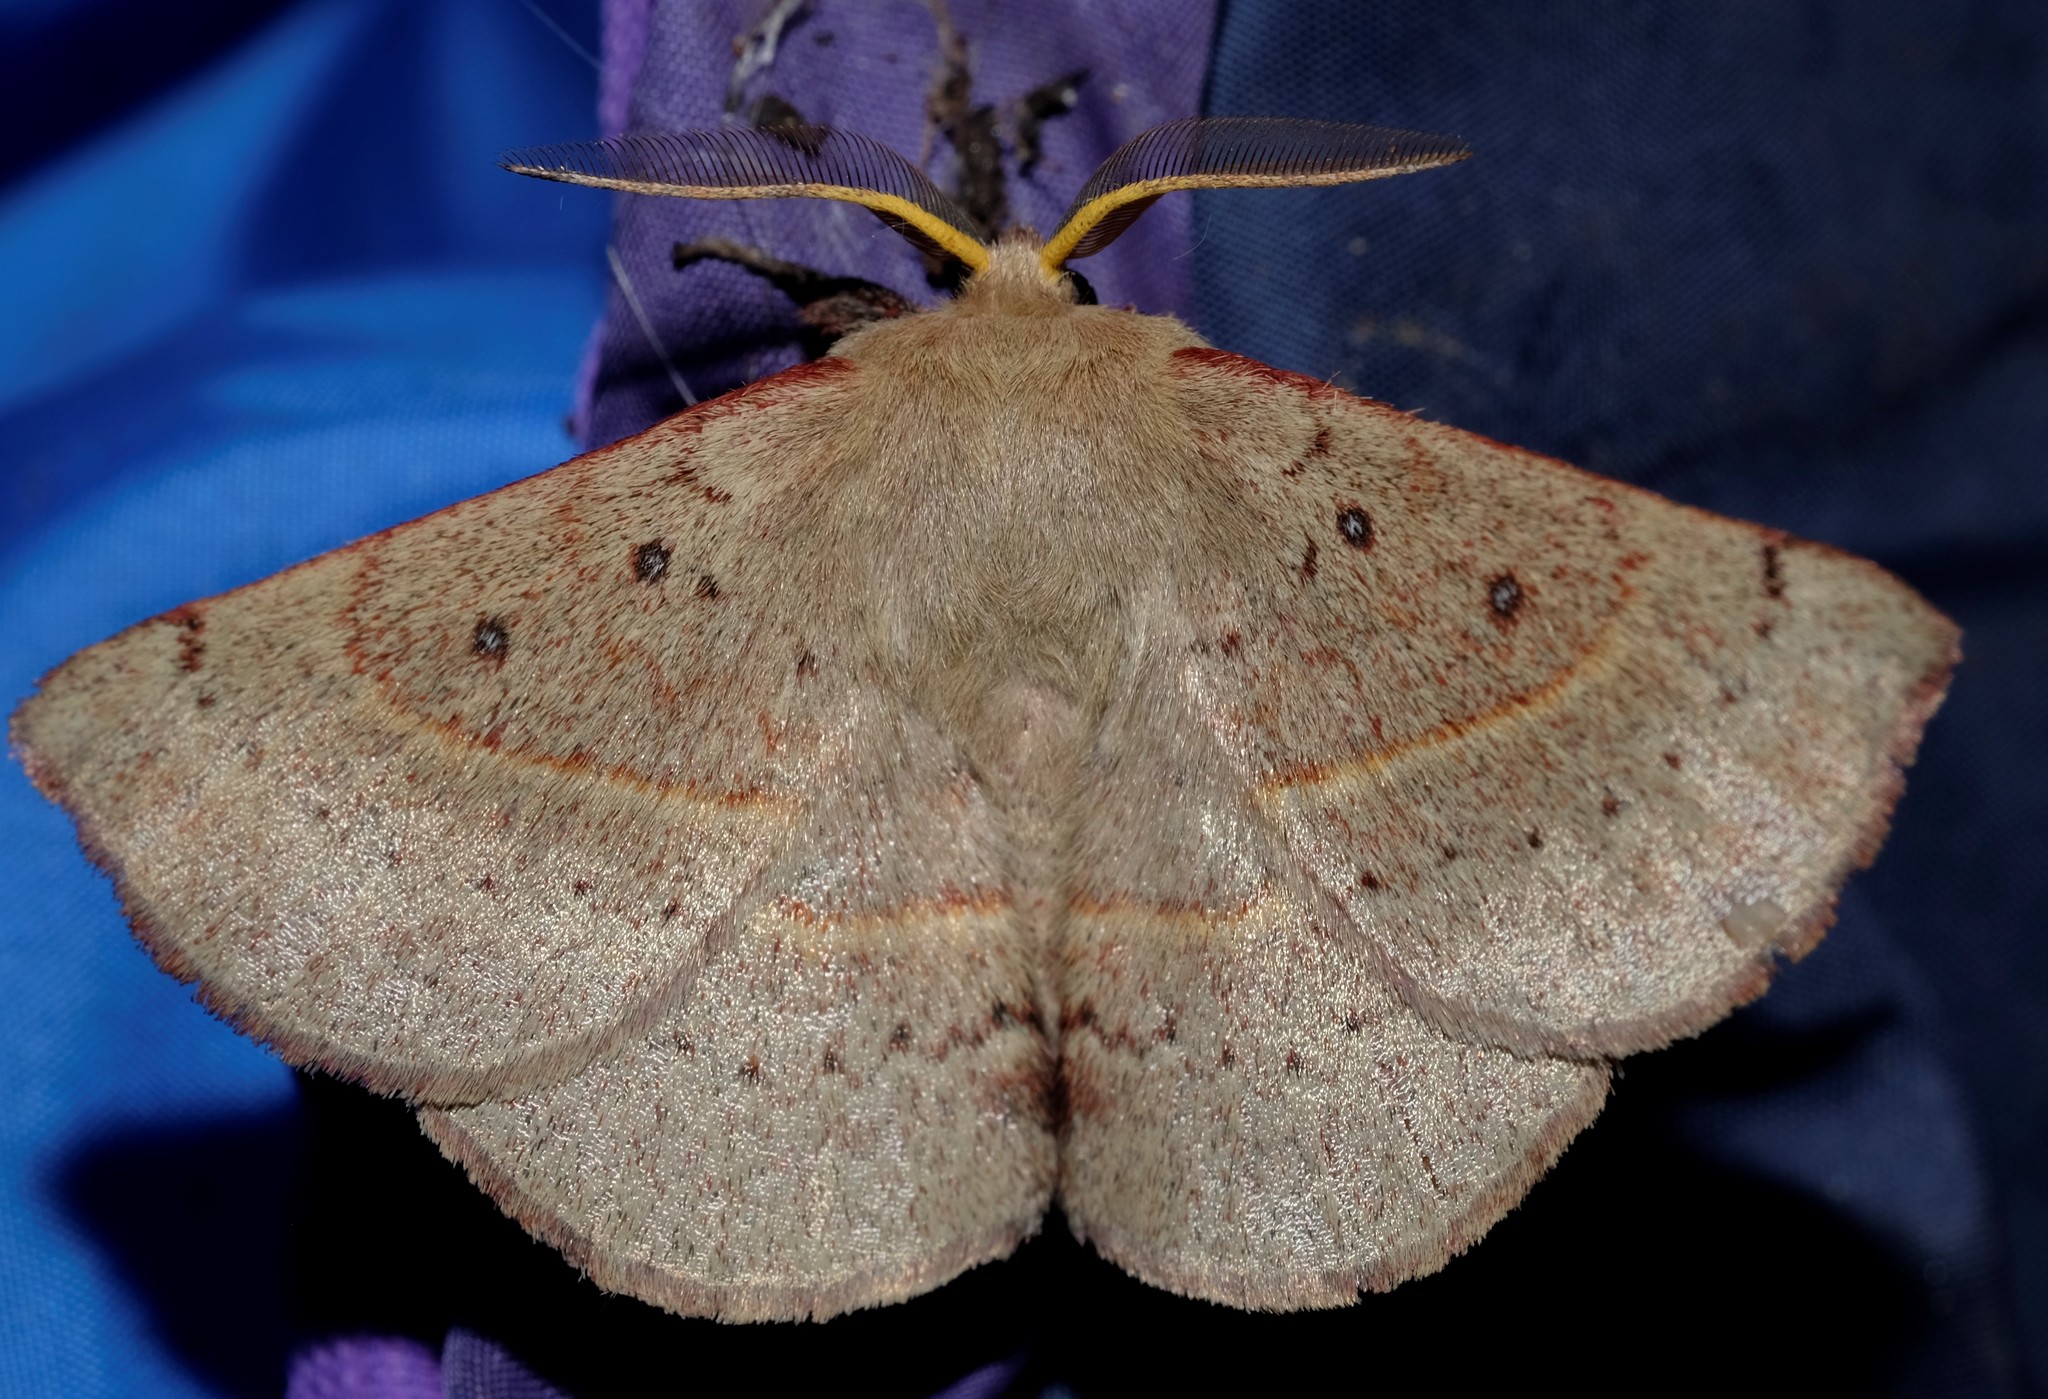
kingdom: Animalia
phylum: Arthropoda
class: Insecta
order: Lepidoptera
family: Anthelidae
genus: Anthela
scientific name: Anthela acuta
